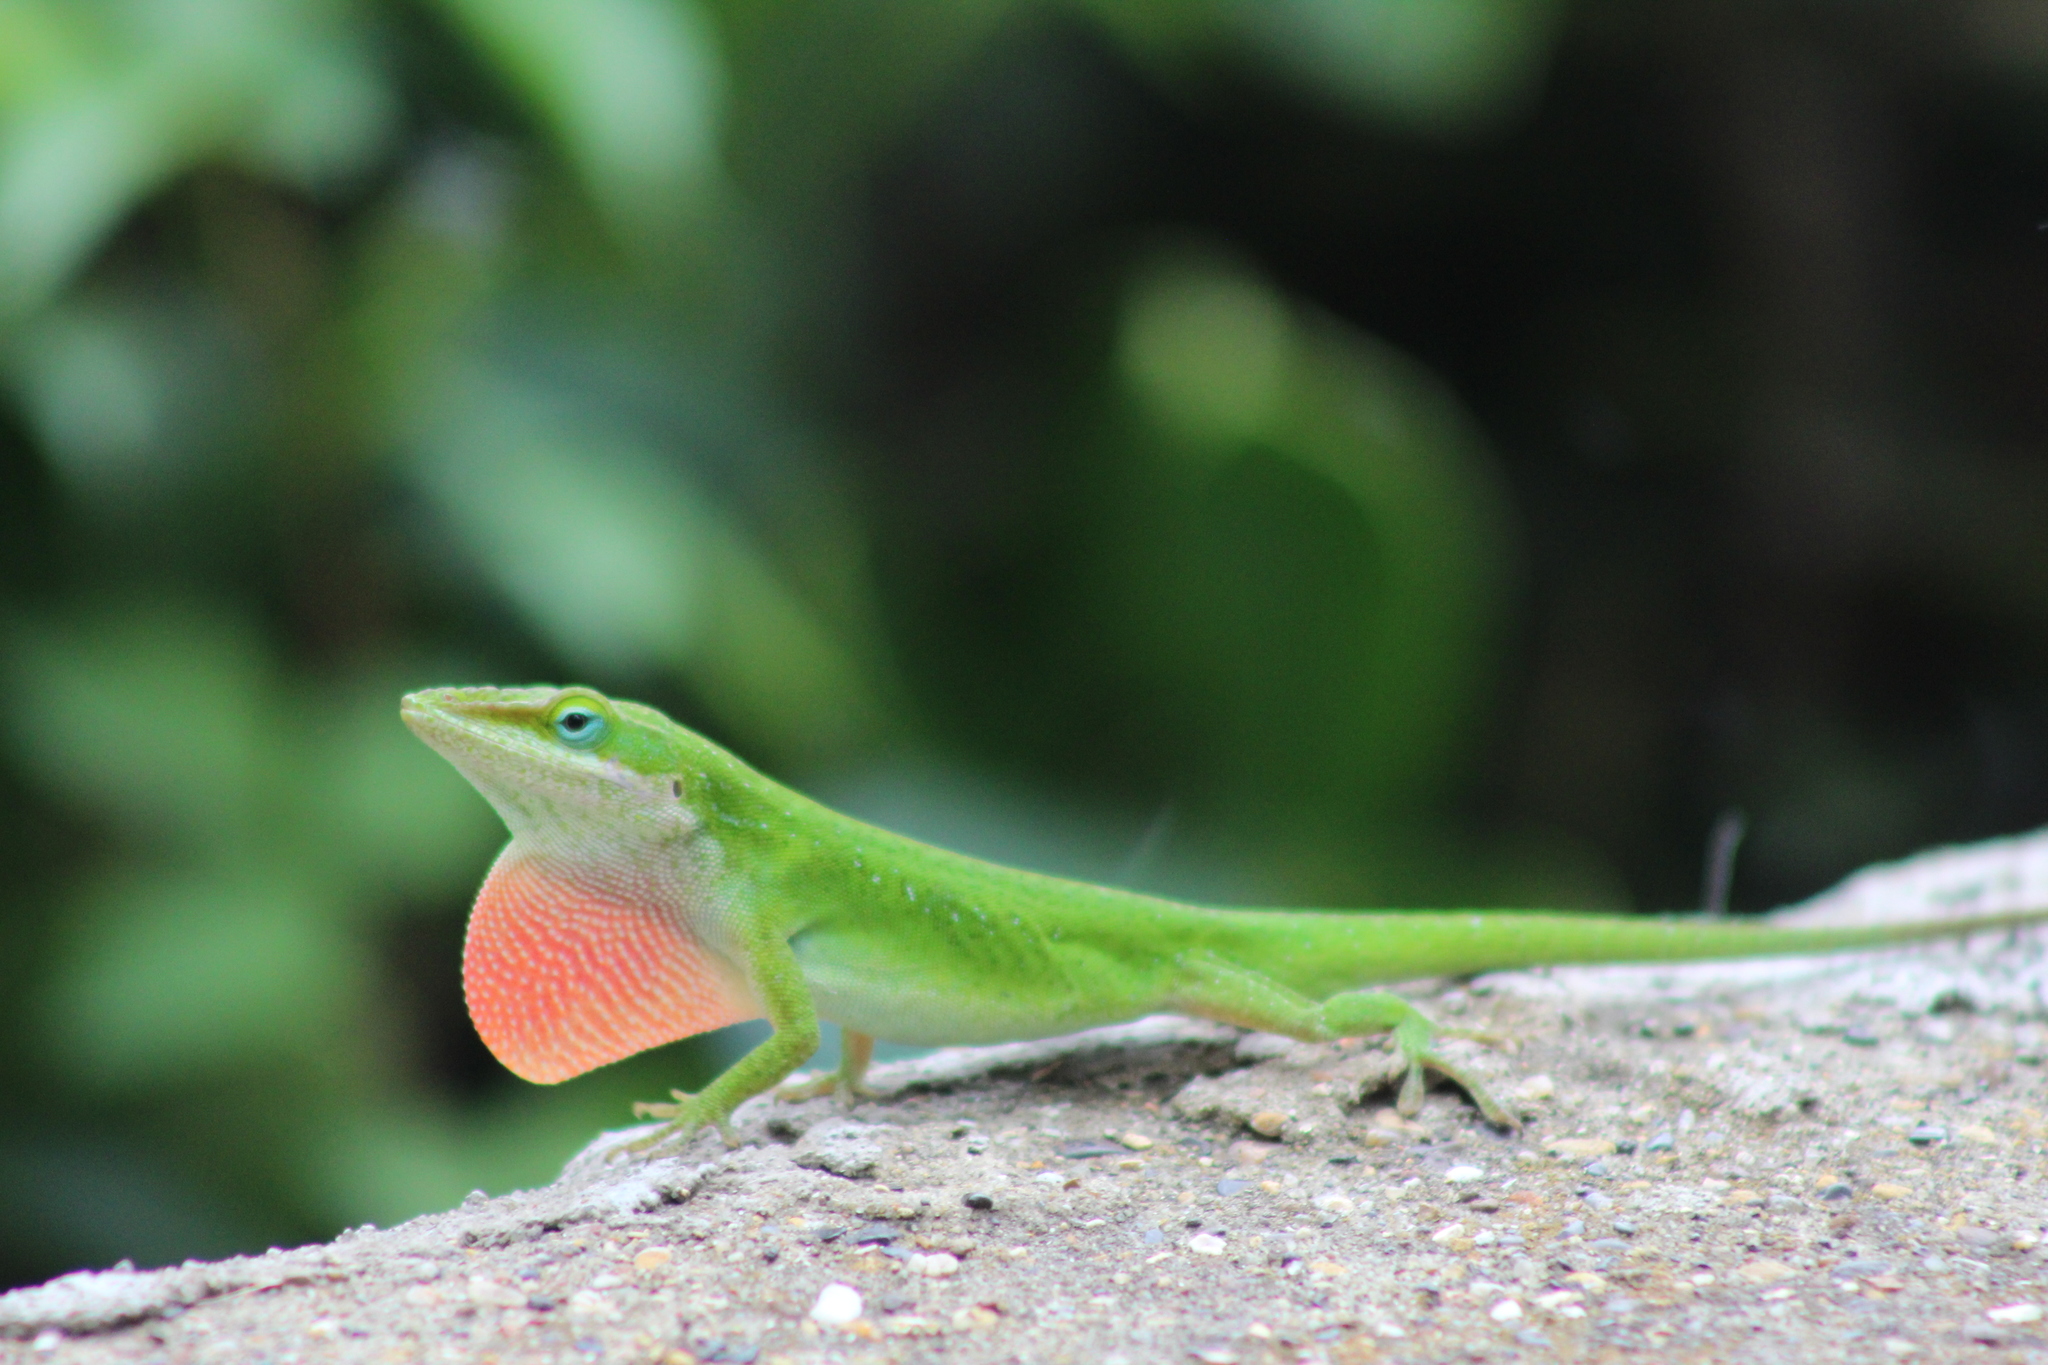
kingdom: Animalia
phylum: Chordata
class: Squamata
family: Dactyloidae
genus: Anolis
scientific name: Anolis carolinensis
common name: Green anole
